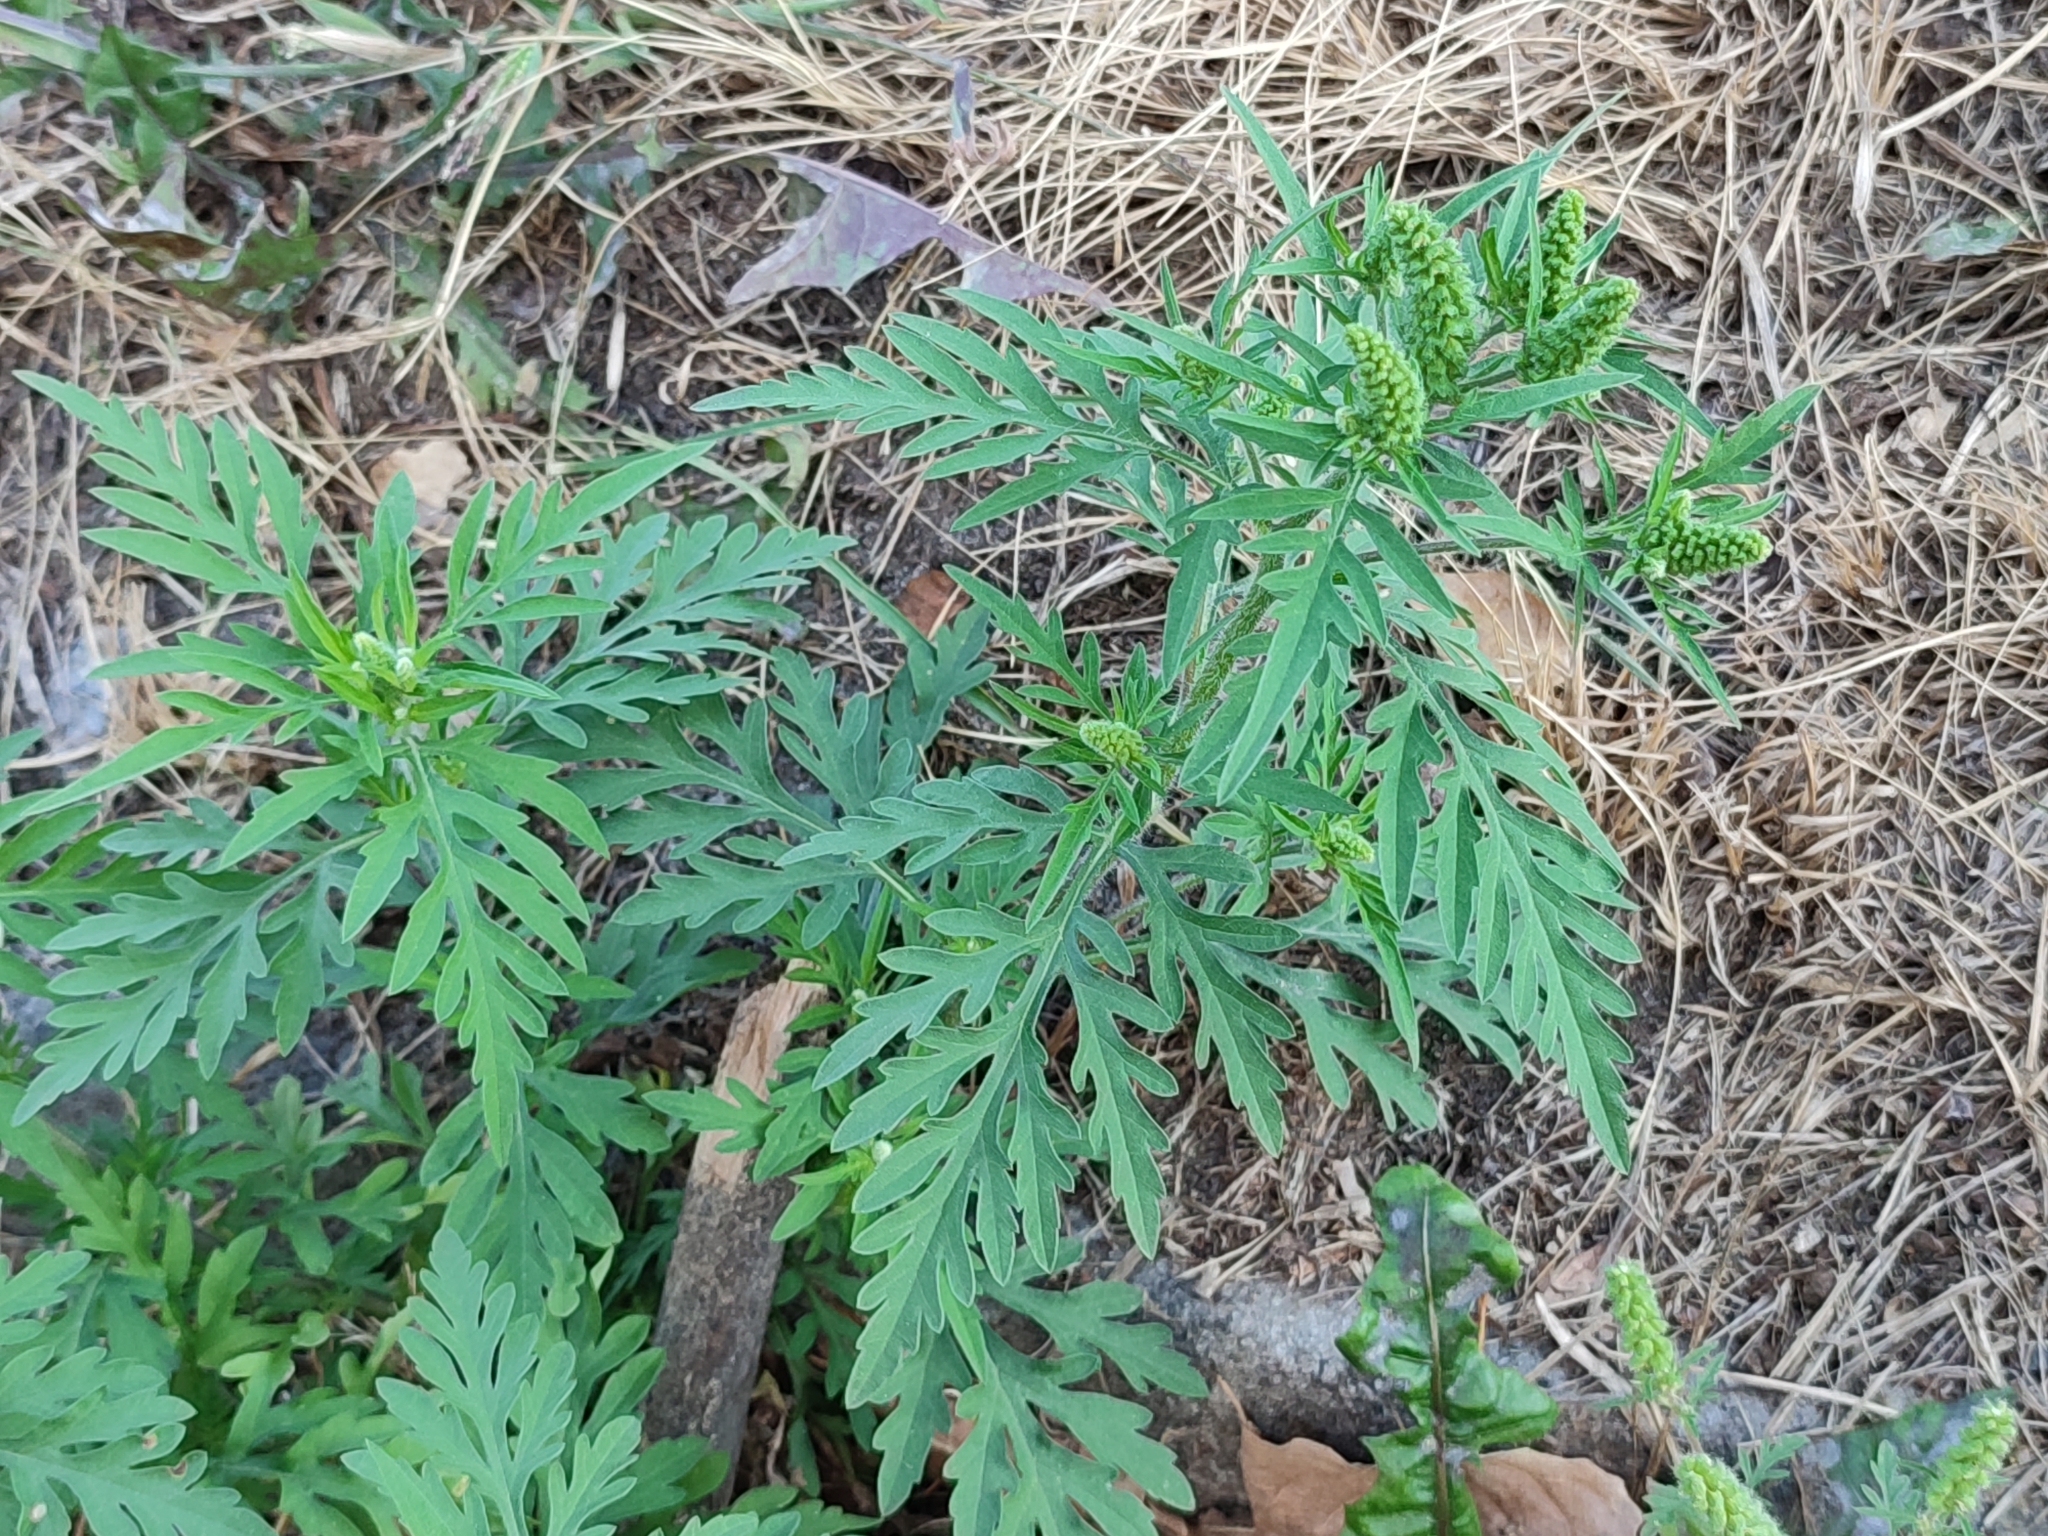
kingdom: Plantae
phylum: Tracheophyta
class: Magnoliopsida
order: Asterales
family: Asteraceae
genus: Ambrosia
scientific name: Ambrosia artemisiifolia
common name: Annual ragweed
